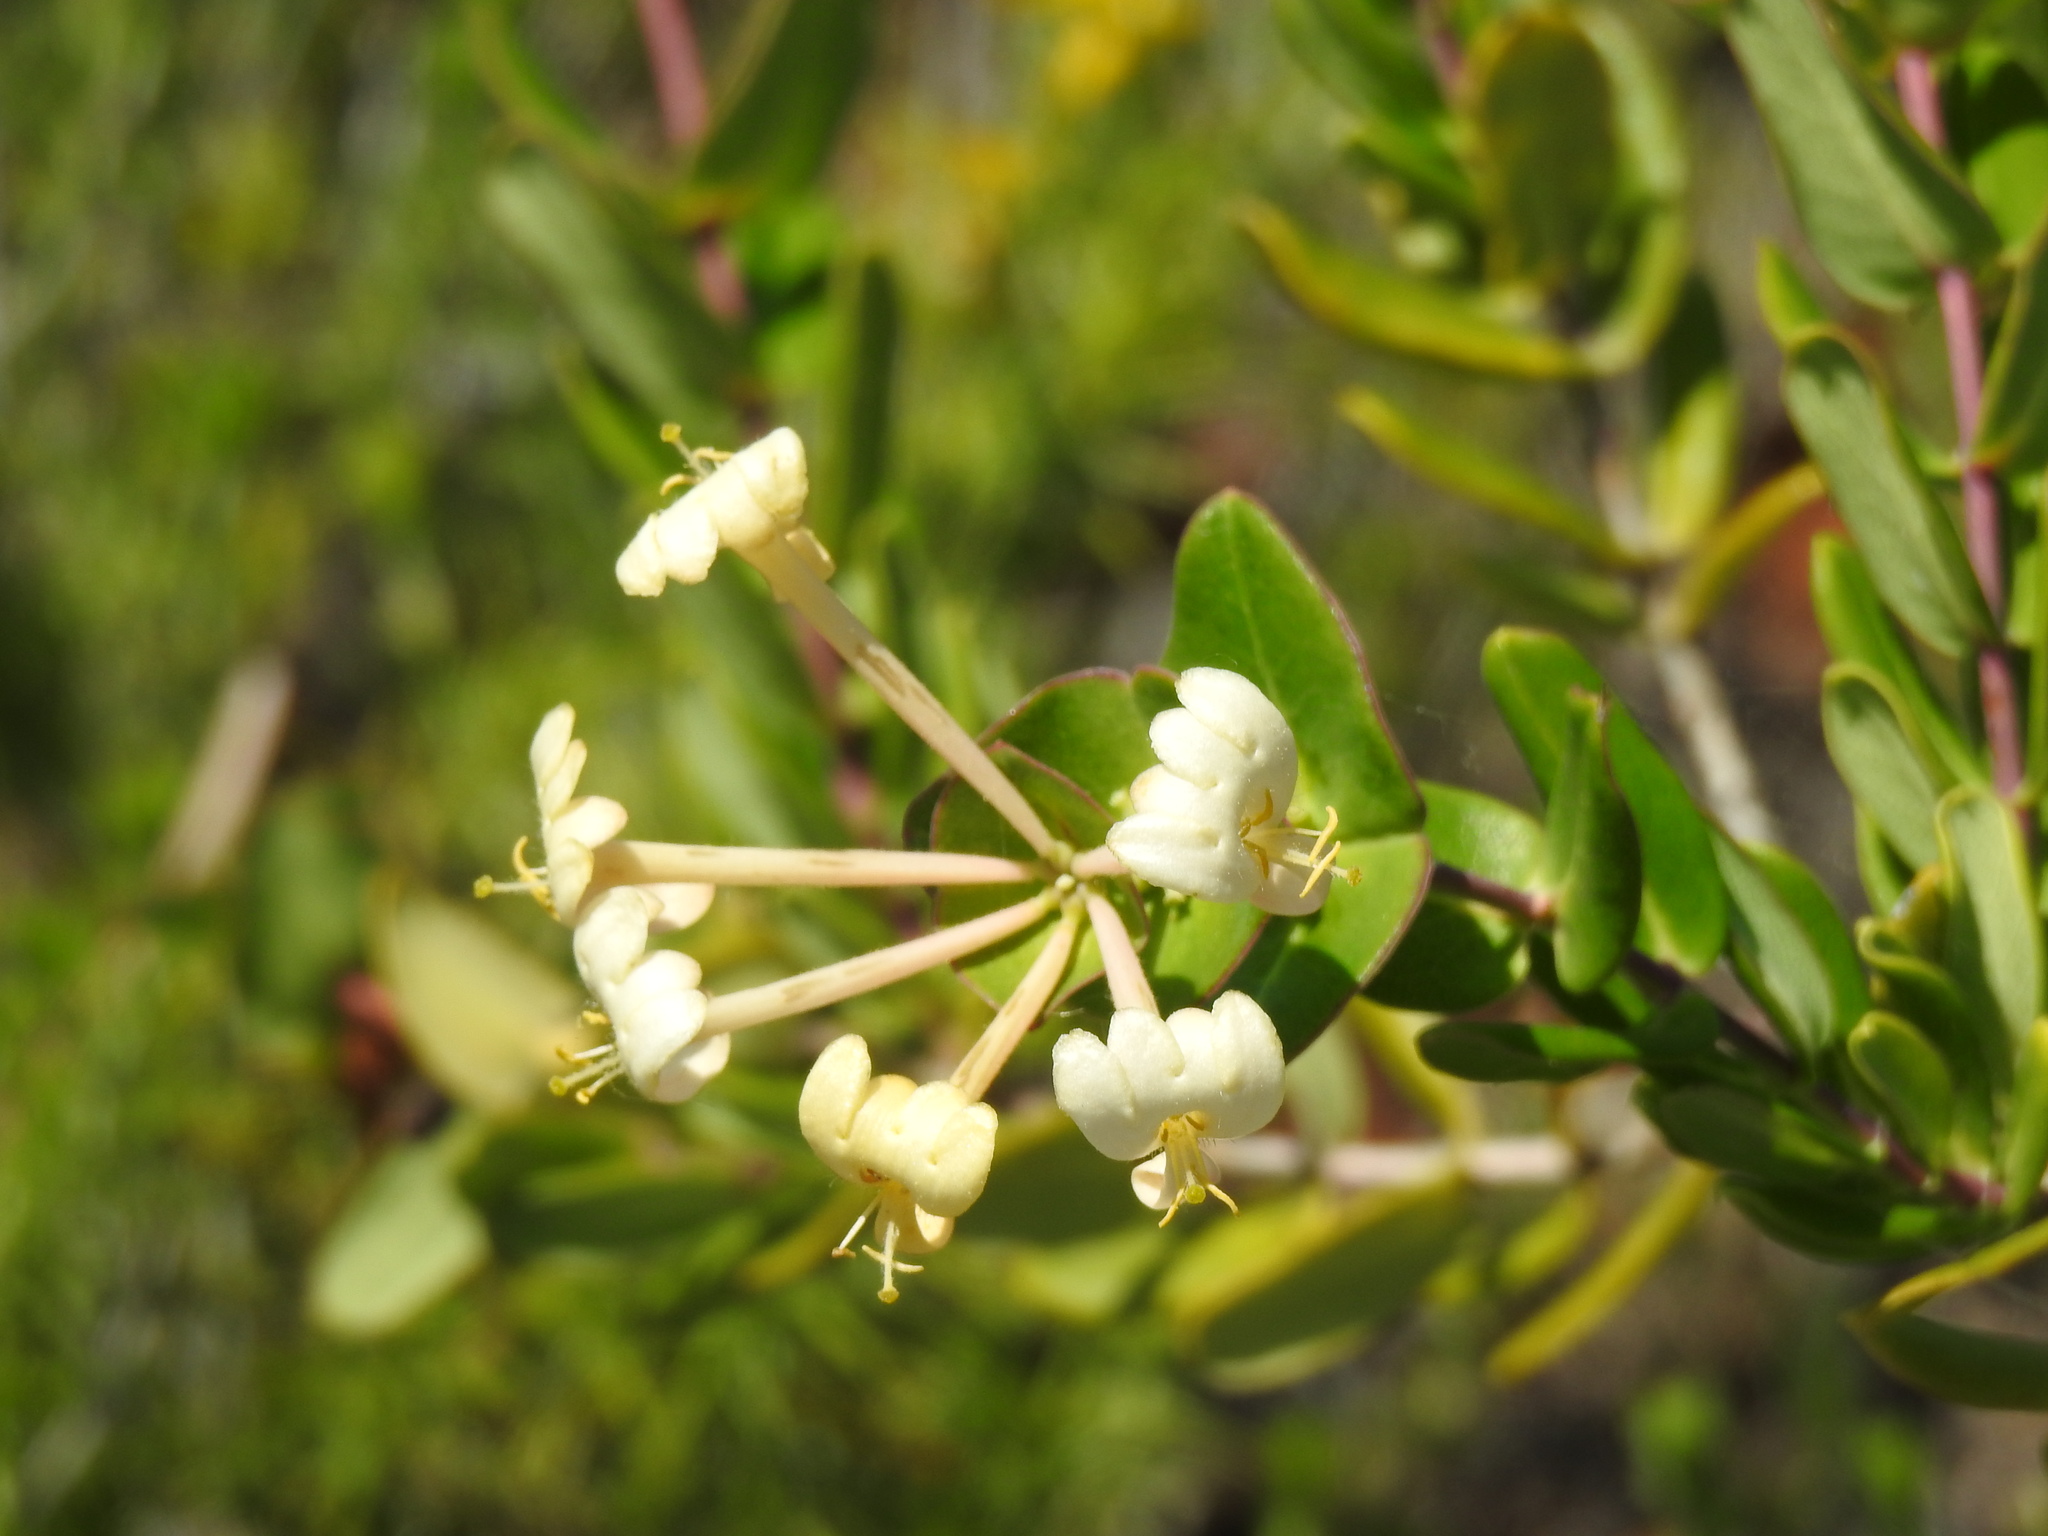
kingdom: Plantae
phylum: Tracheophyta
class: Magnoliopsida
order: Dipsacales
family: Caprifoliaceae
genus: Lonicera
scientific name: Lonicera implexa
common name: Minorca honeysuckle
